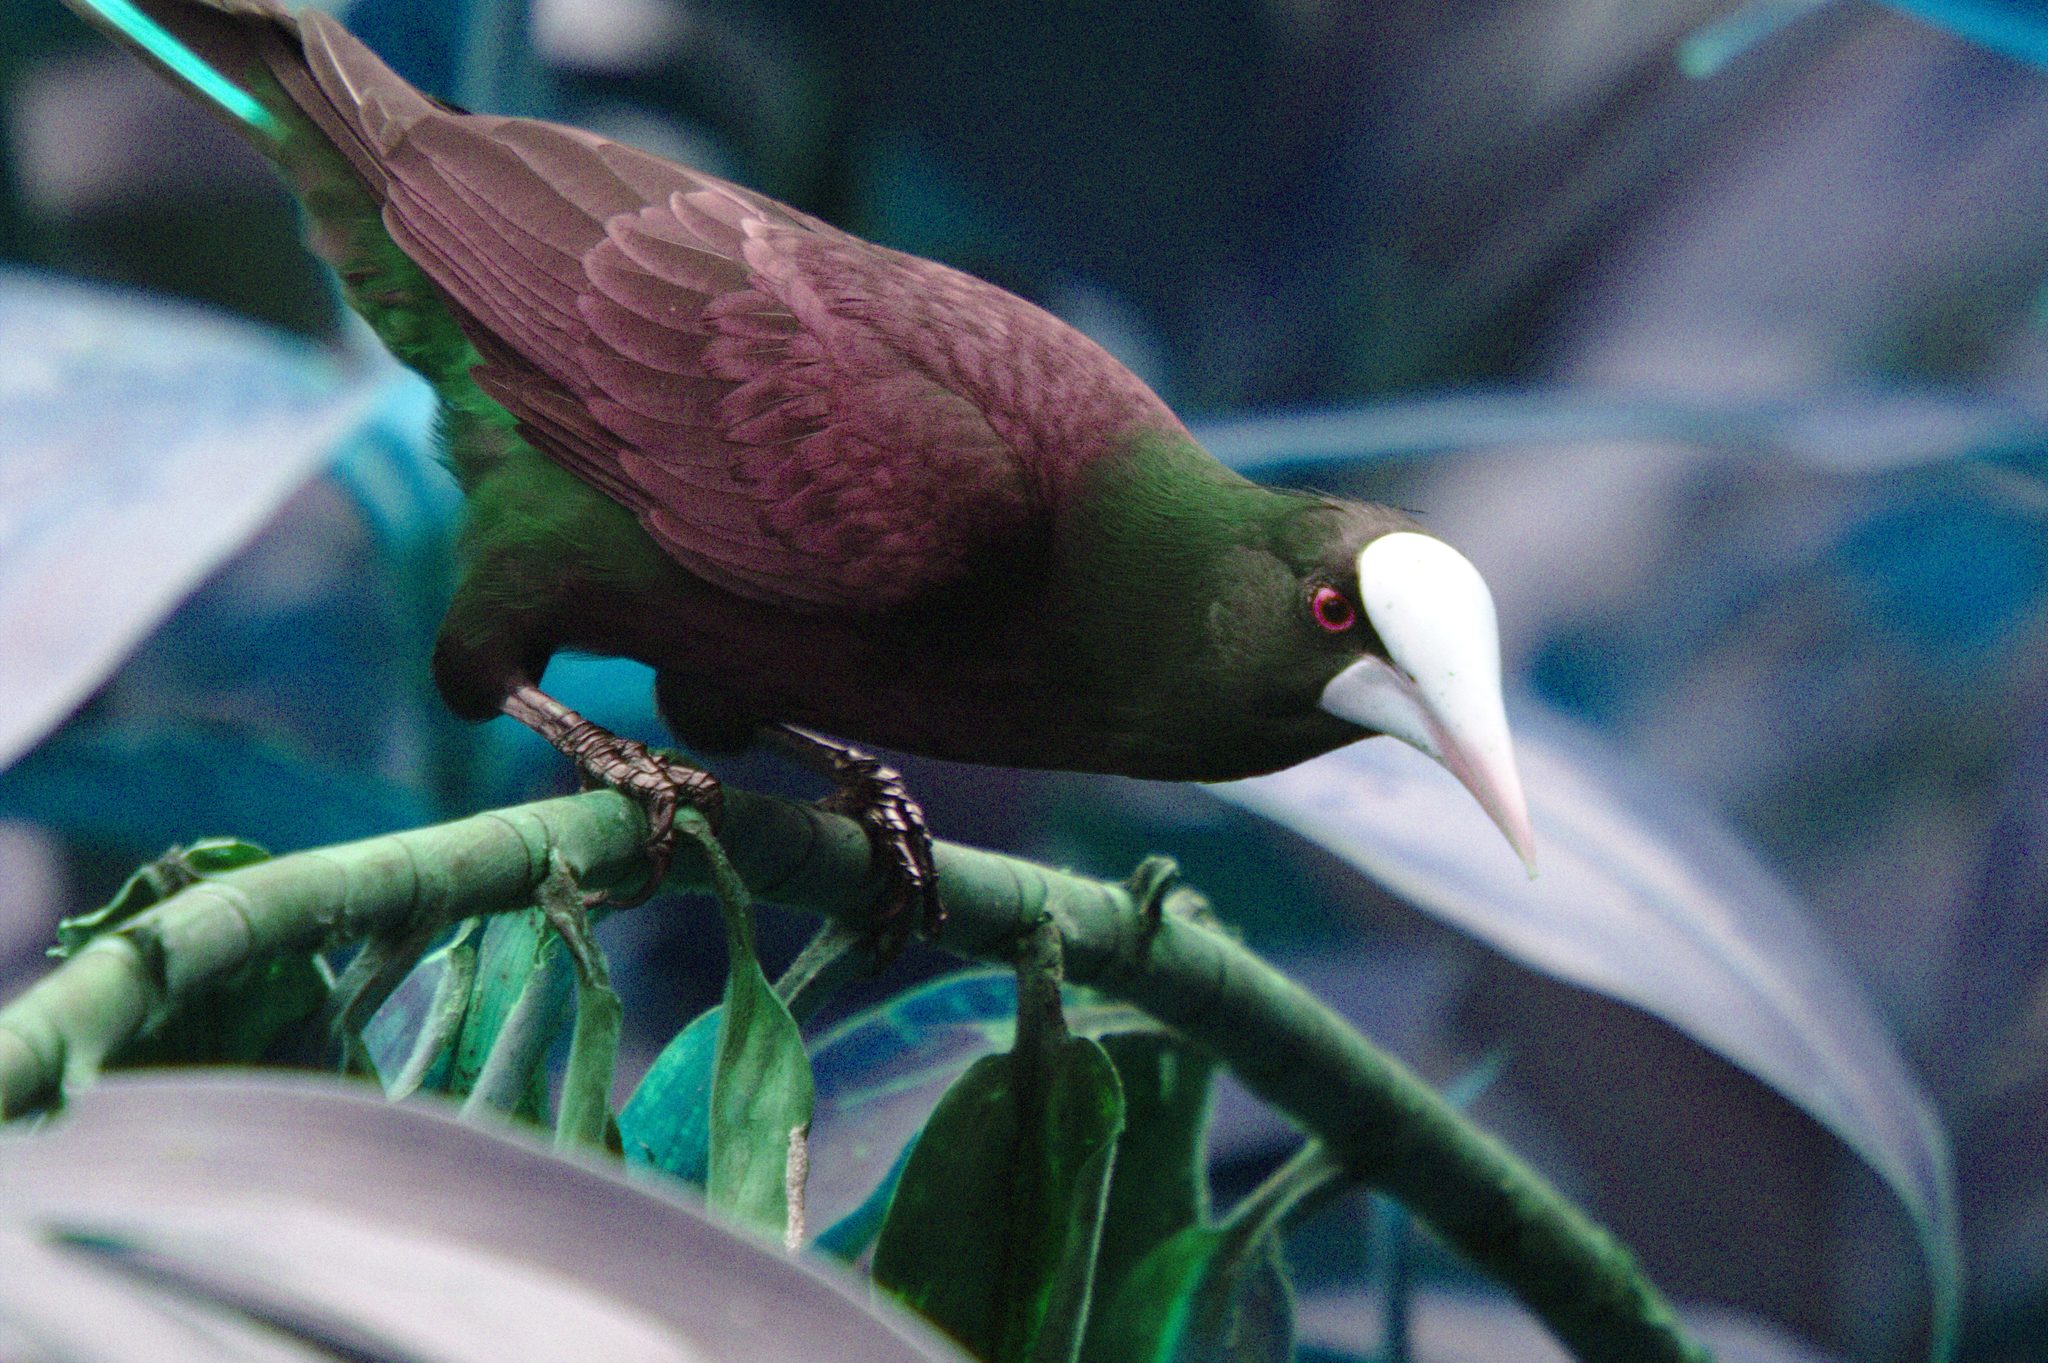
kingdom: Animalia
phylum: Chordata
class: Aves
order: Passeriformes
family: Icteridae
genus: Psarocolius
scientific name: Psarocolius wagleri
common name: Chestnut-headed oropendola
